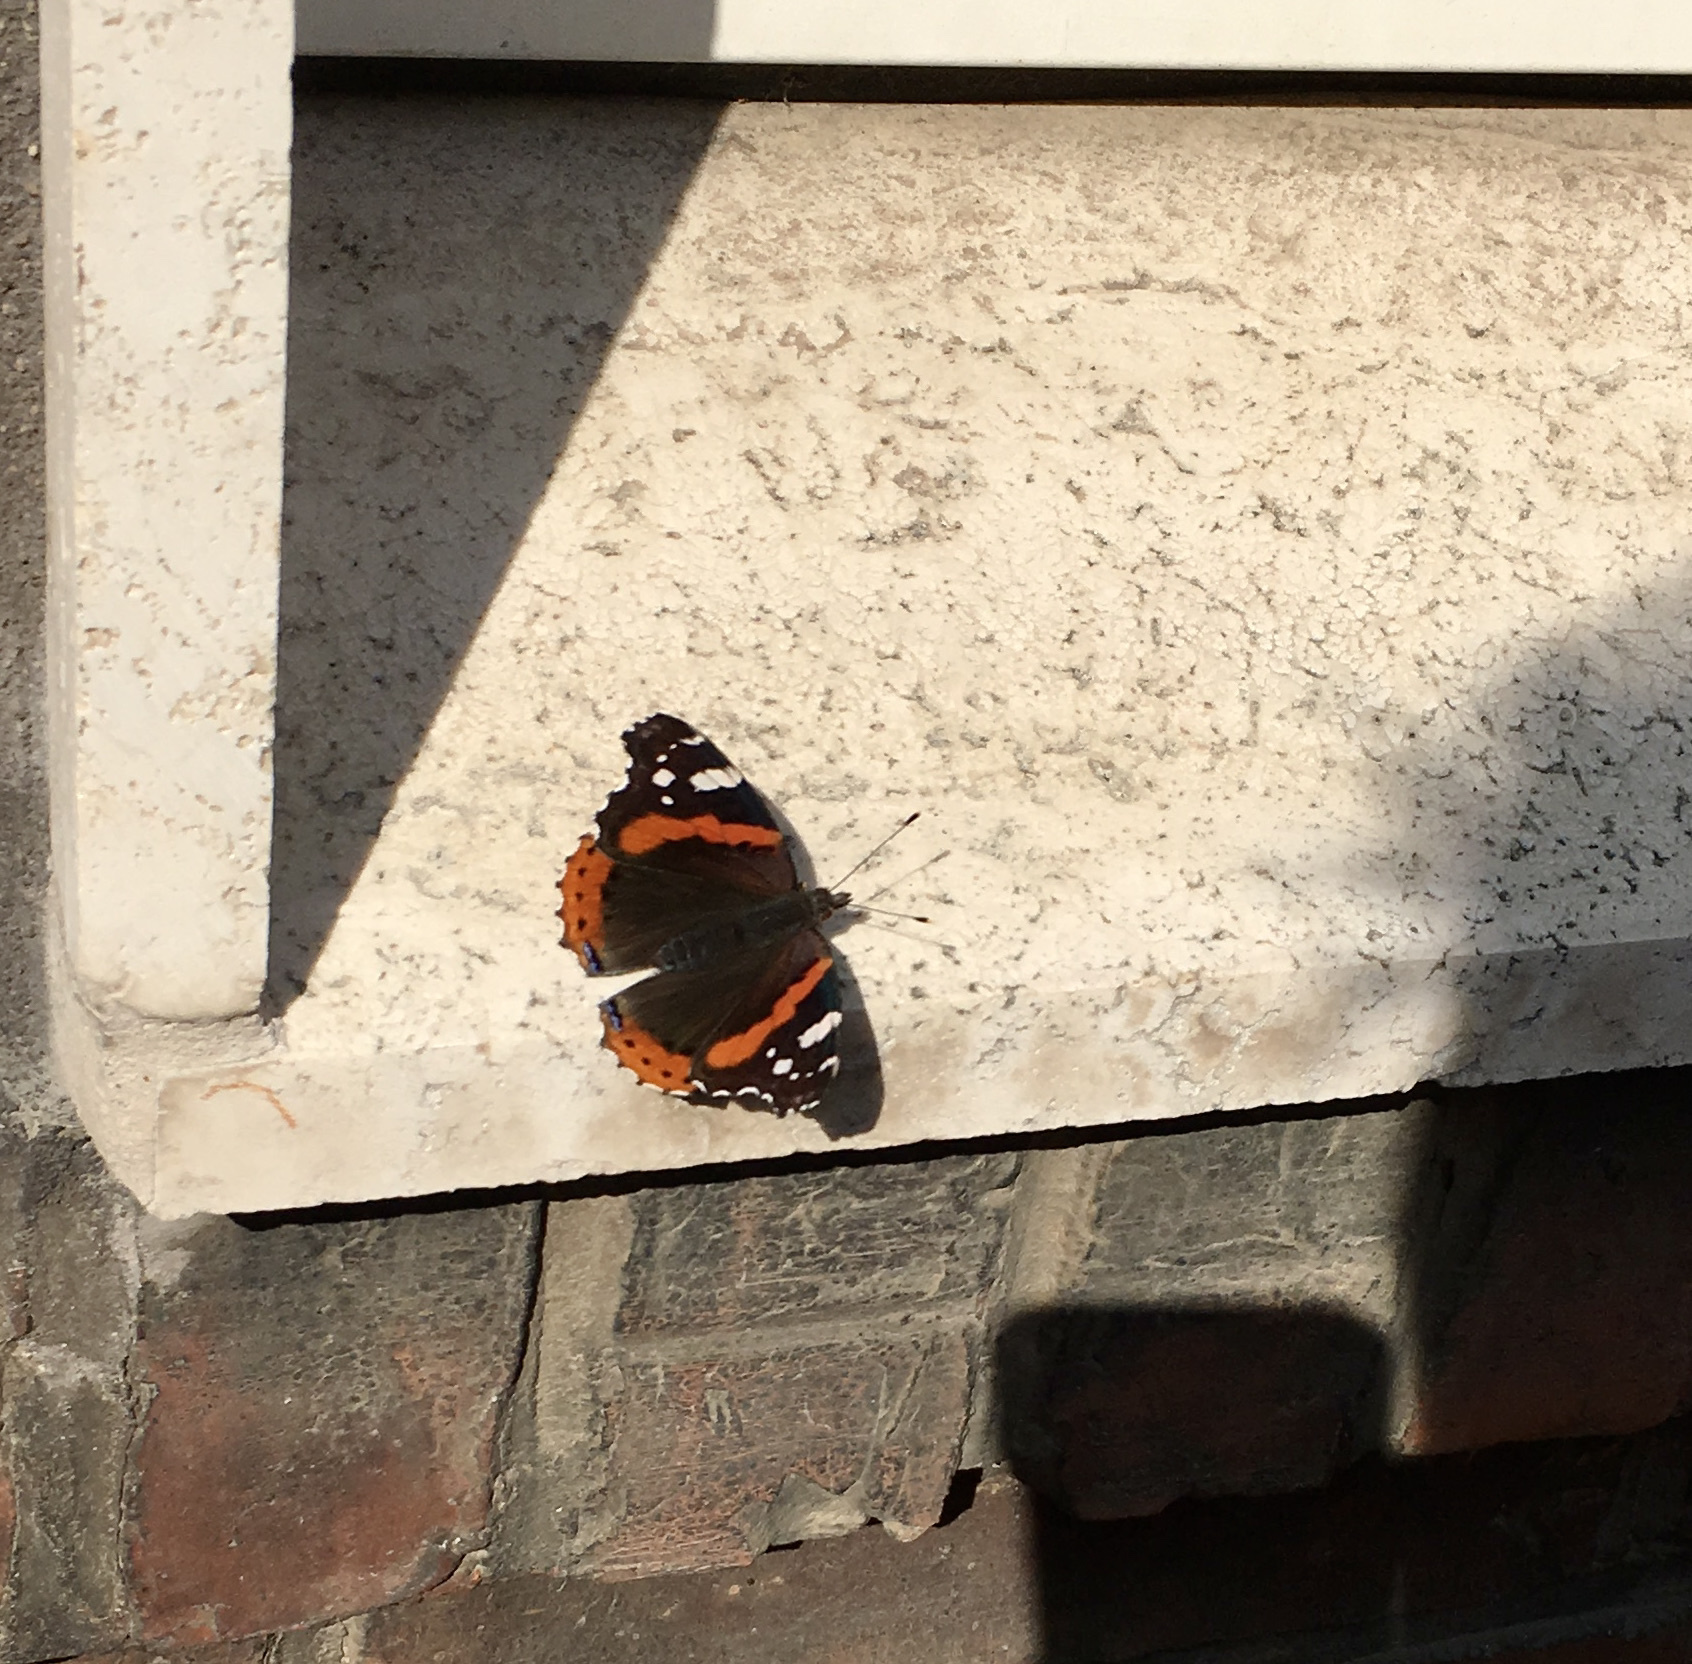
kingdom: Animalia
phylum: Arthropoda
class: Insecta
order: Lepidoptera
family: Nymphalidae
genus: Vanessa
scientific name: Vanessa atalanta
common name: Red admiral
